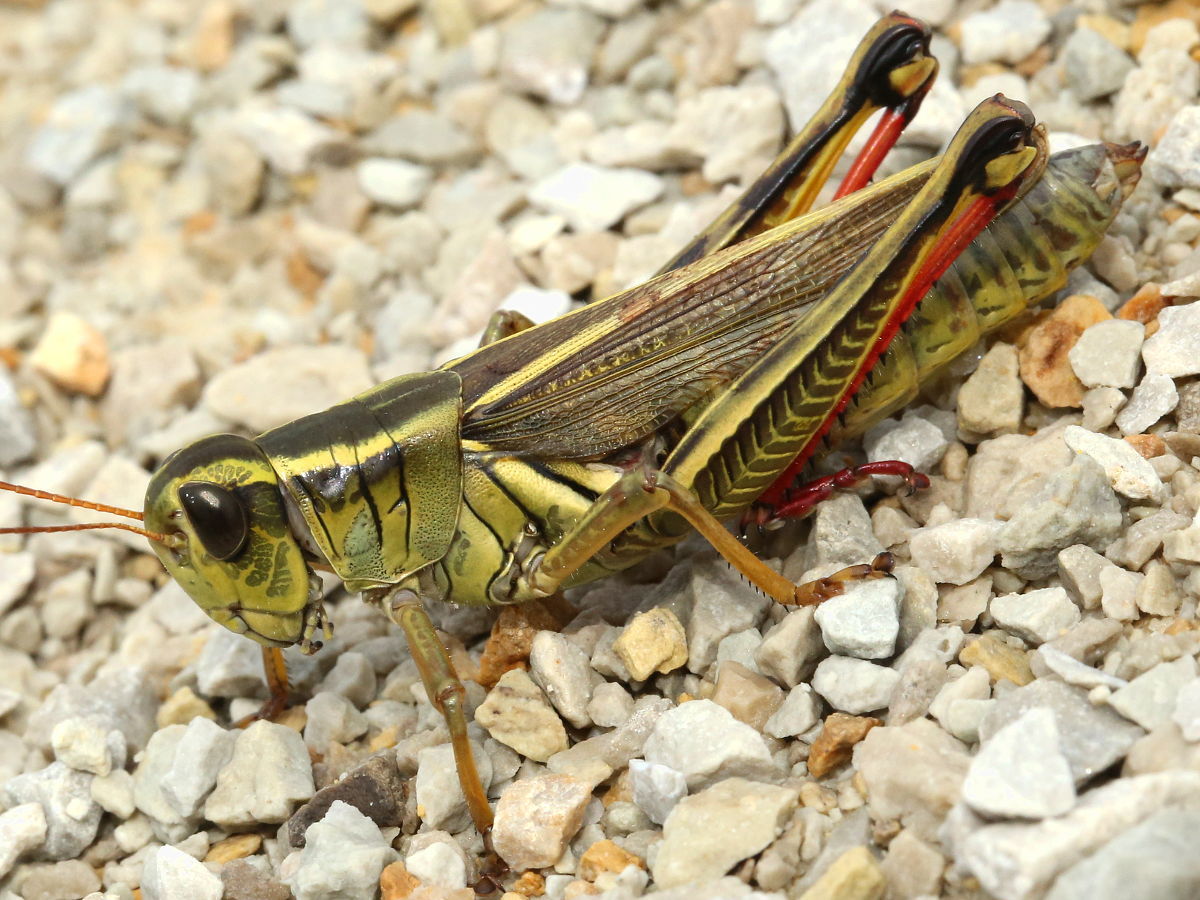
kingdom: Animalia
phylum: Arthropoda
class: Insecta
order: Orthoptera
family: Acrididae
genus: Melanoplus
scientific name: Melanoplus bivittatus
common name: Two-striped grasshopper
